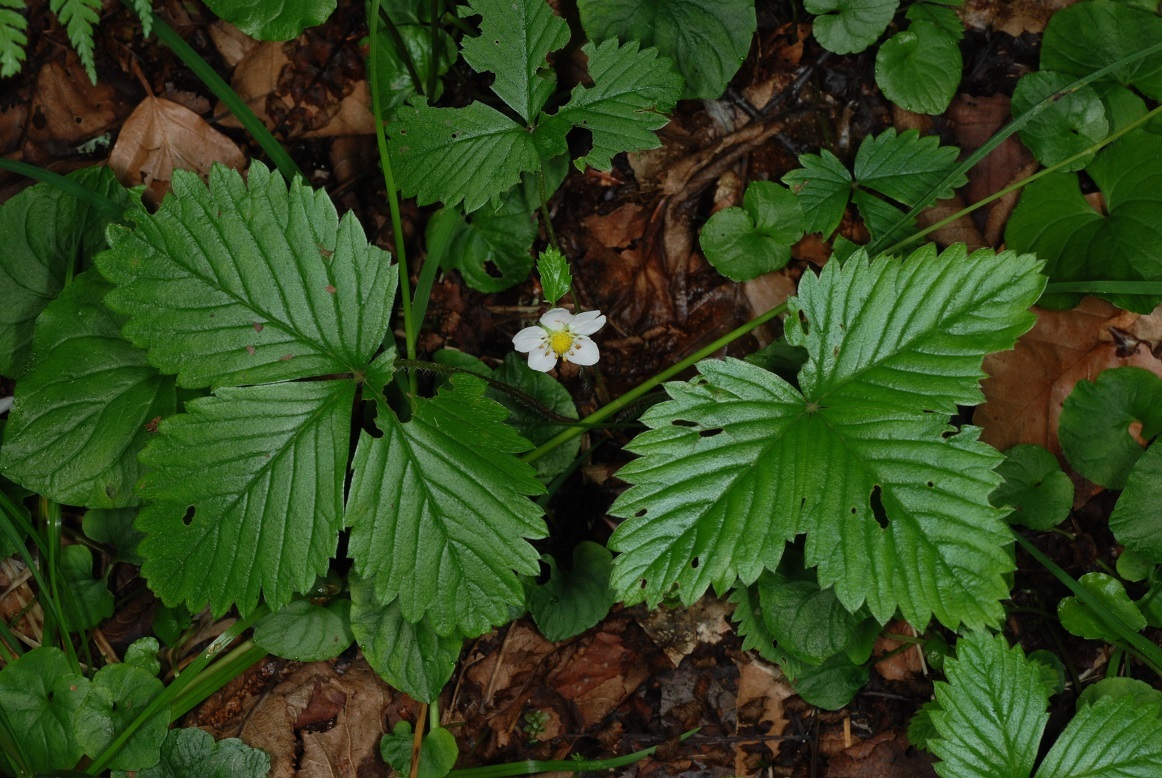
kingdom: Plantae
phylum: Tracheophyta
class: Magnoliopsida
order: Rosales
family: Rosaceae
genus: Fragaria
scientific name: Fragaria vesca
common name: Wild strawberry
